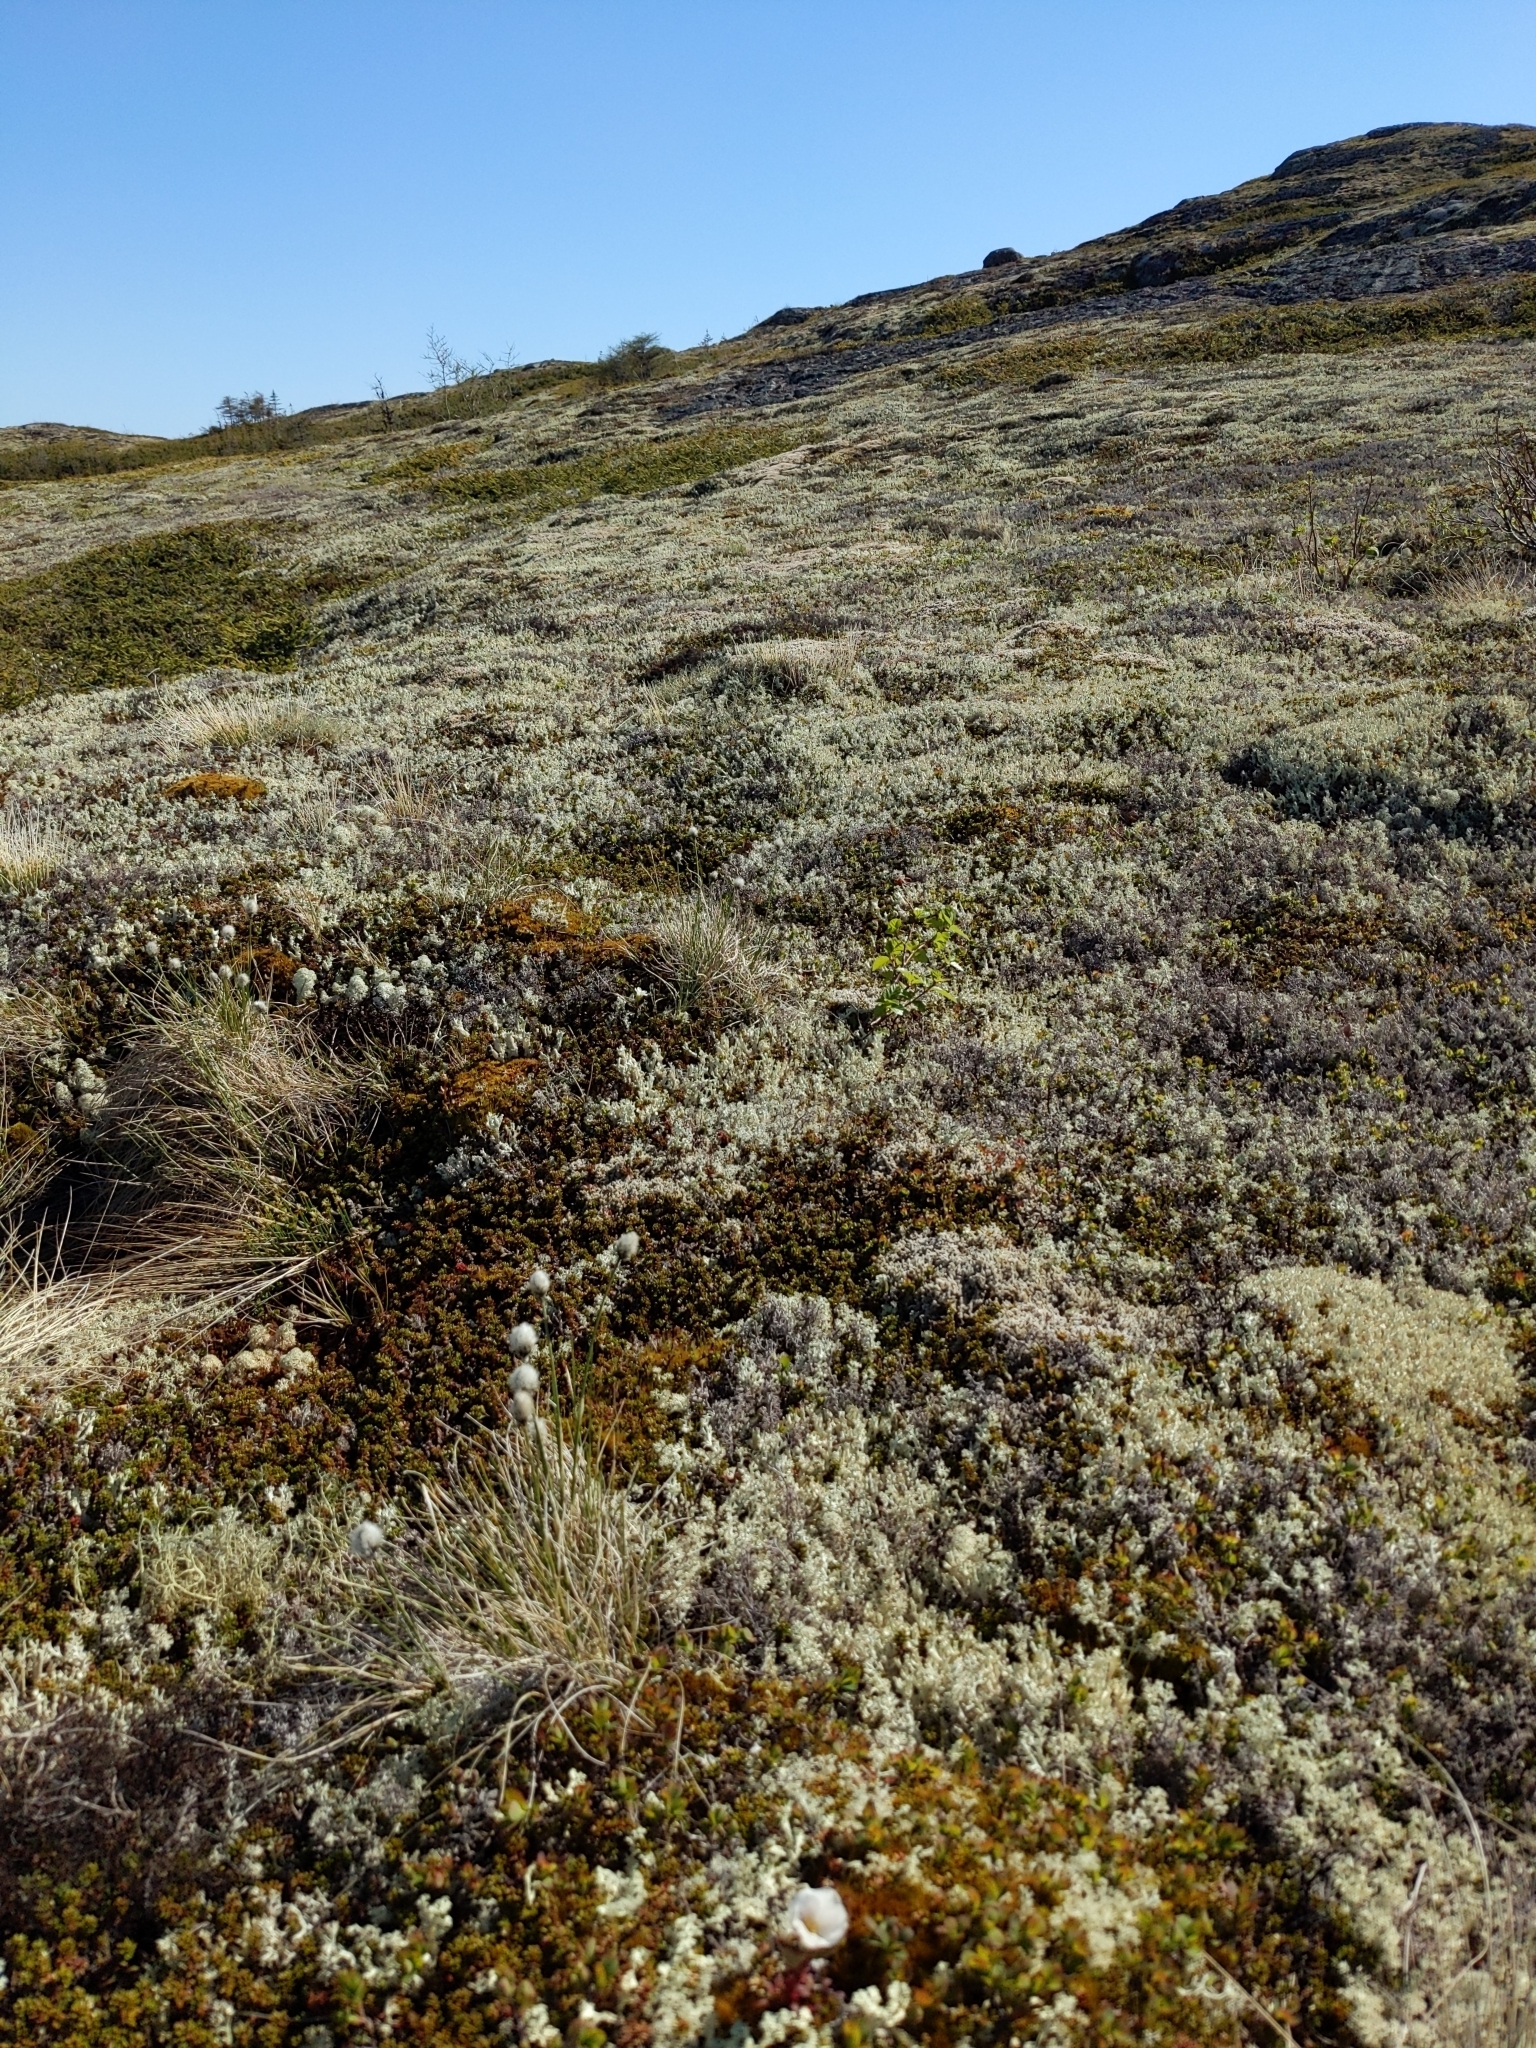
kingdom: Plantae
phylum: Tracheophyta
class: Magnoliopsida
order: Rosales
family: Rosaceae
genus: Rubus
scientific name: Rubus chamaemorus
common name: Cloudberry
